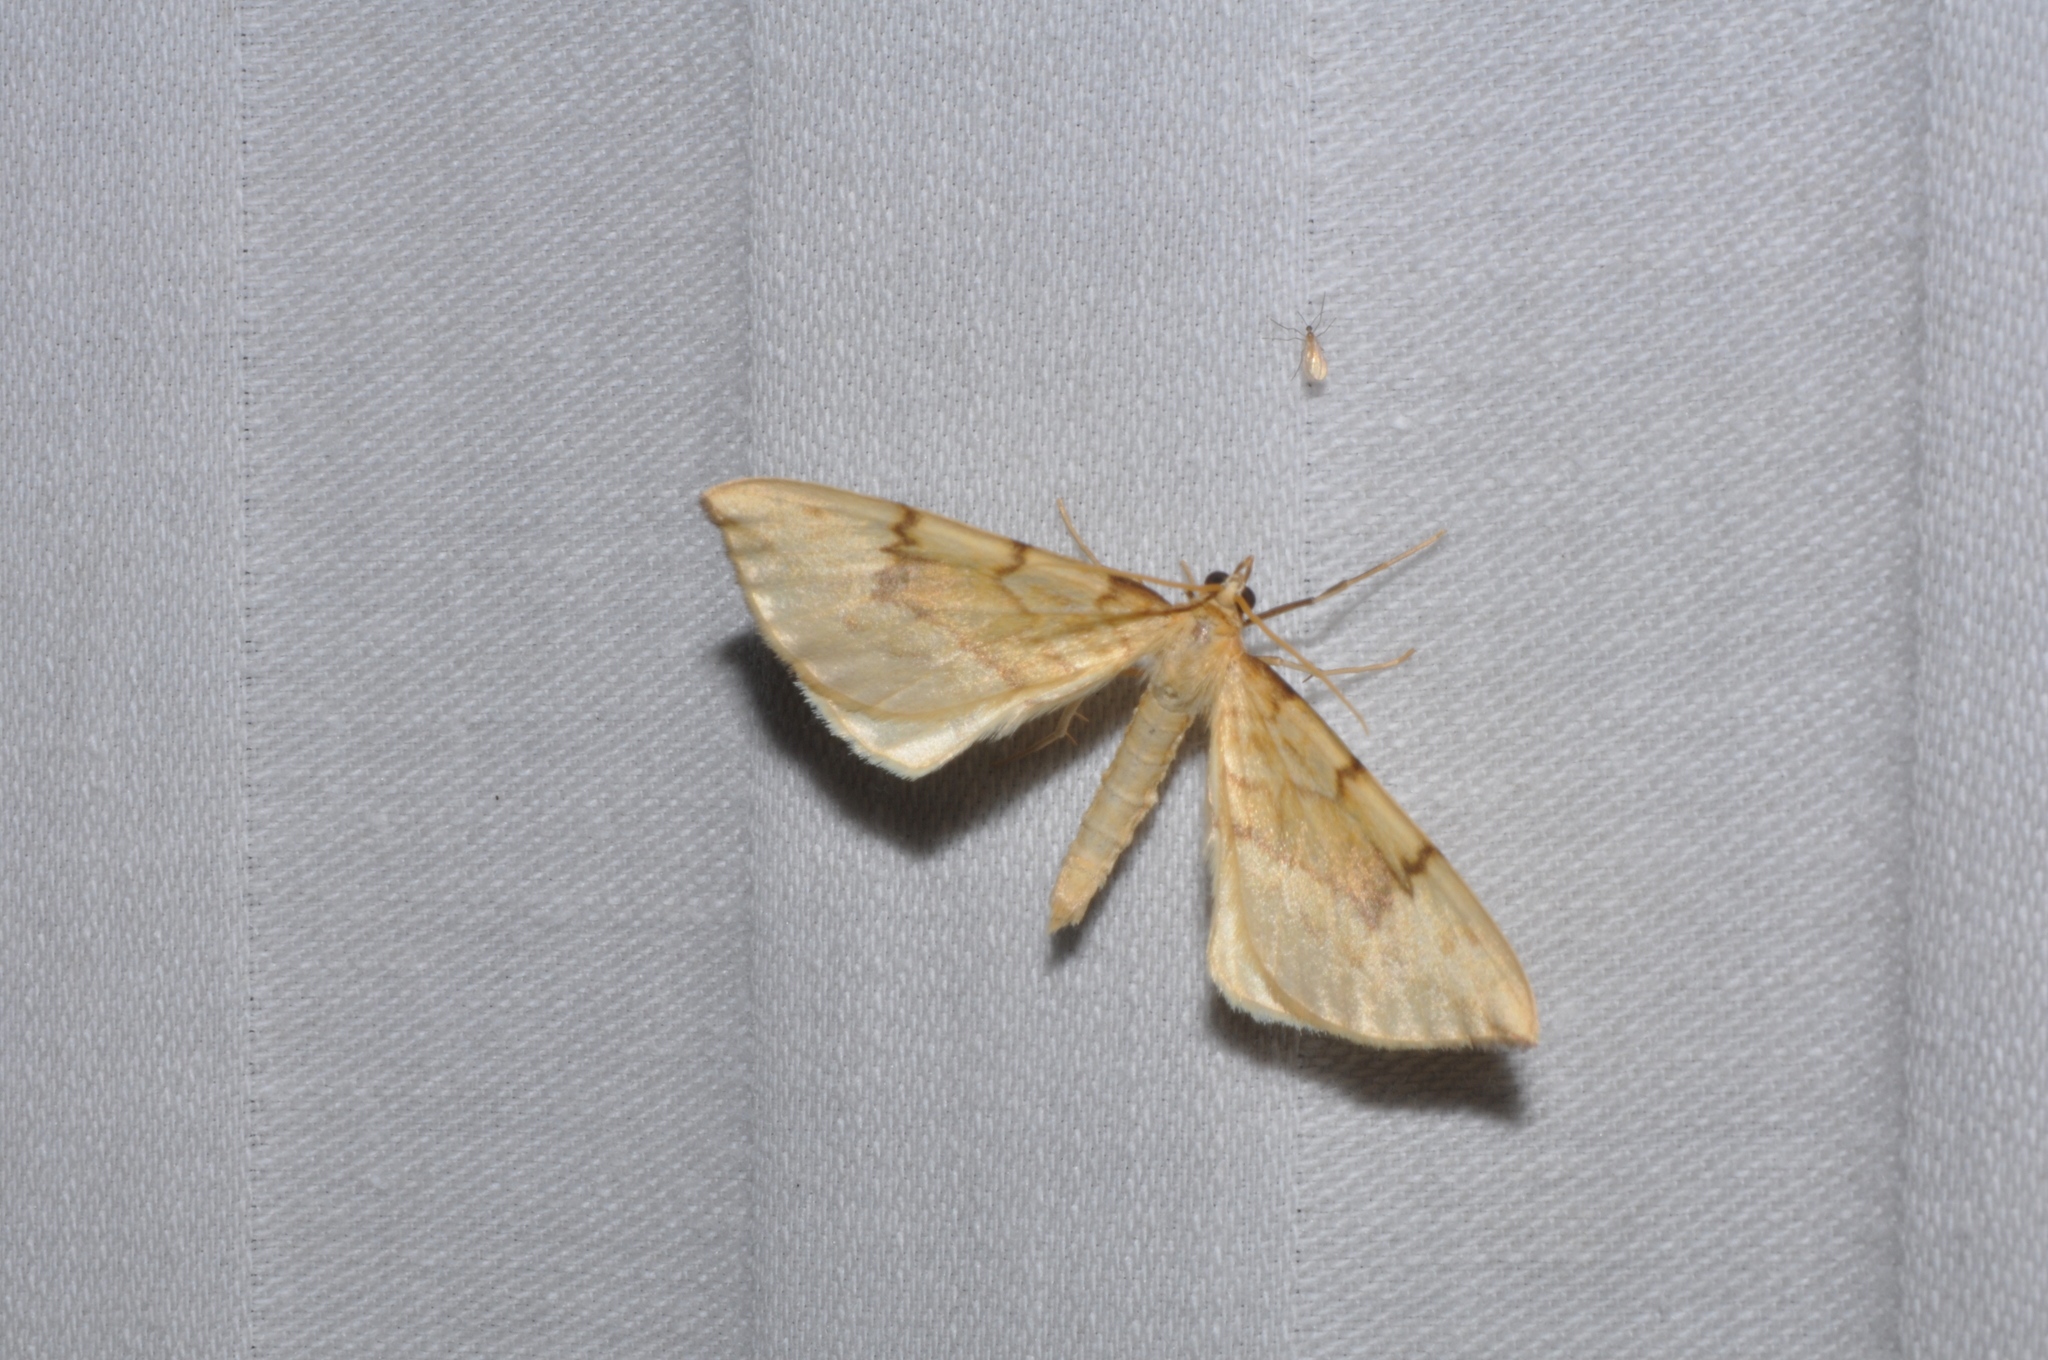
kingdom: Animalia
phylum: Arthropoda
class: Insecta
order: Lepidoptera
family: Geometridae
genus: Eulithis
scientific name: Eulithis pyraliata
